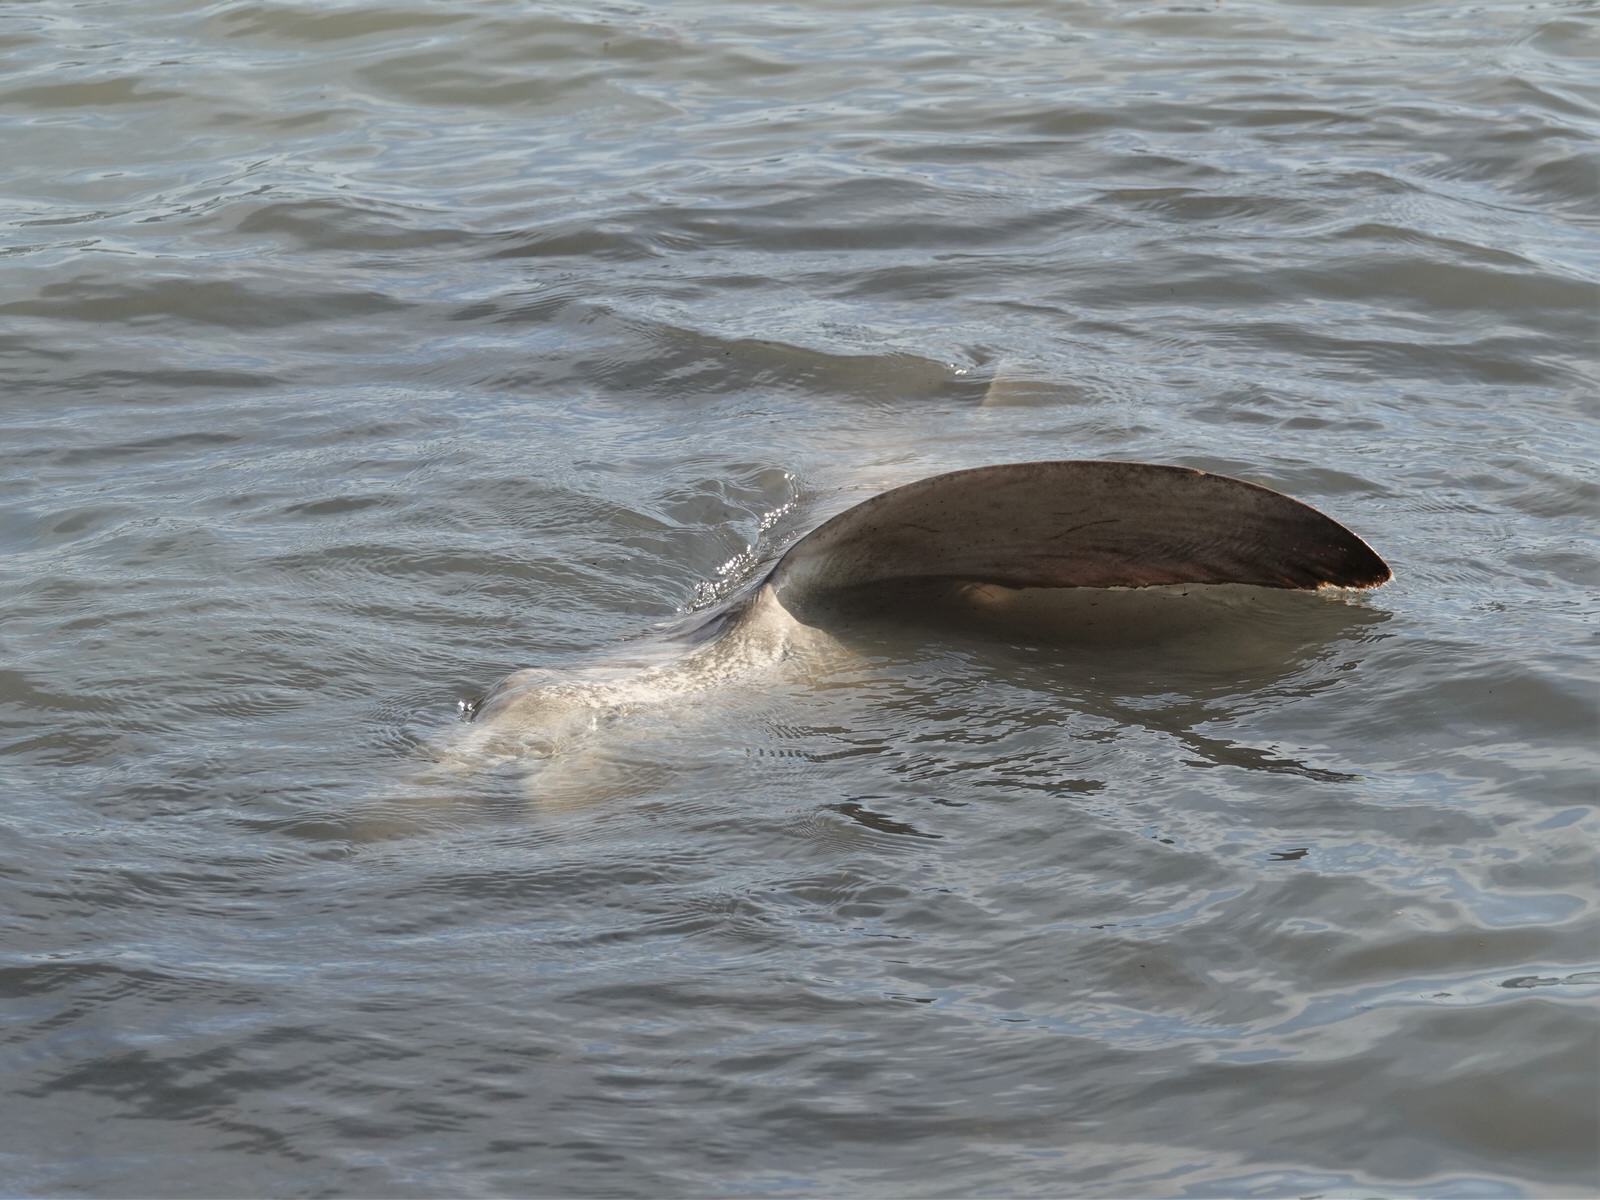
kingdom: Animalia
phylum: Chordata
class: Elasmobranchii
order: Carcharhiniformes
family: Carcharhinidae
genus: Carcharhinus
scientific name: Carcharhinus brachyurus
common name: Bronze whaler
